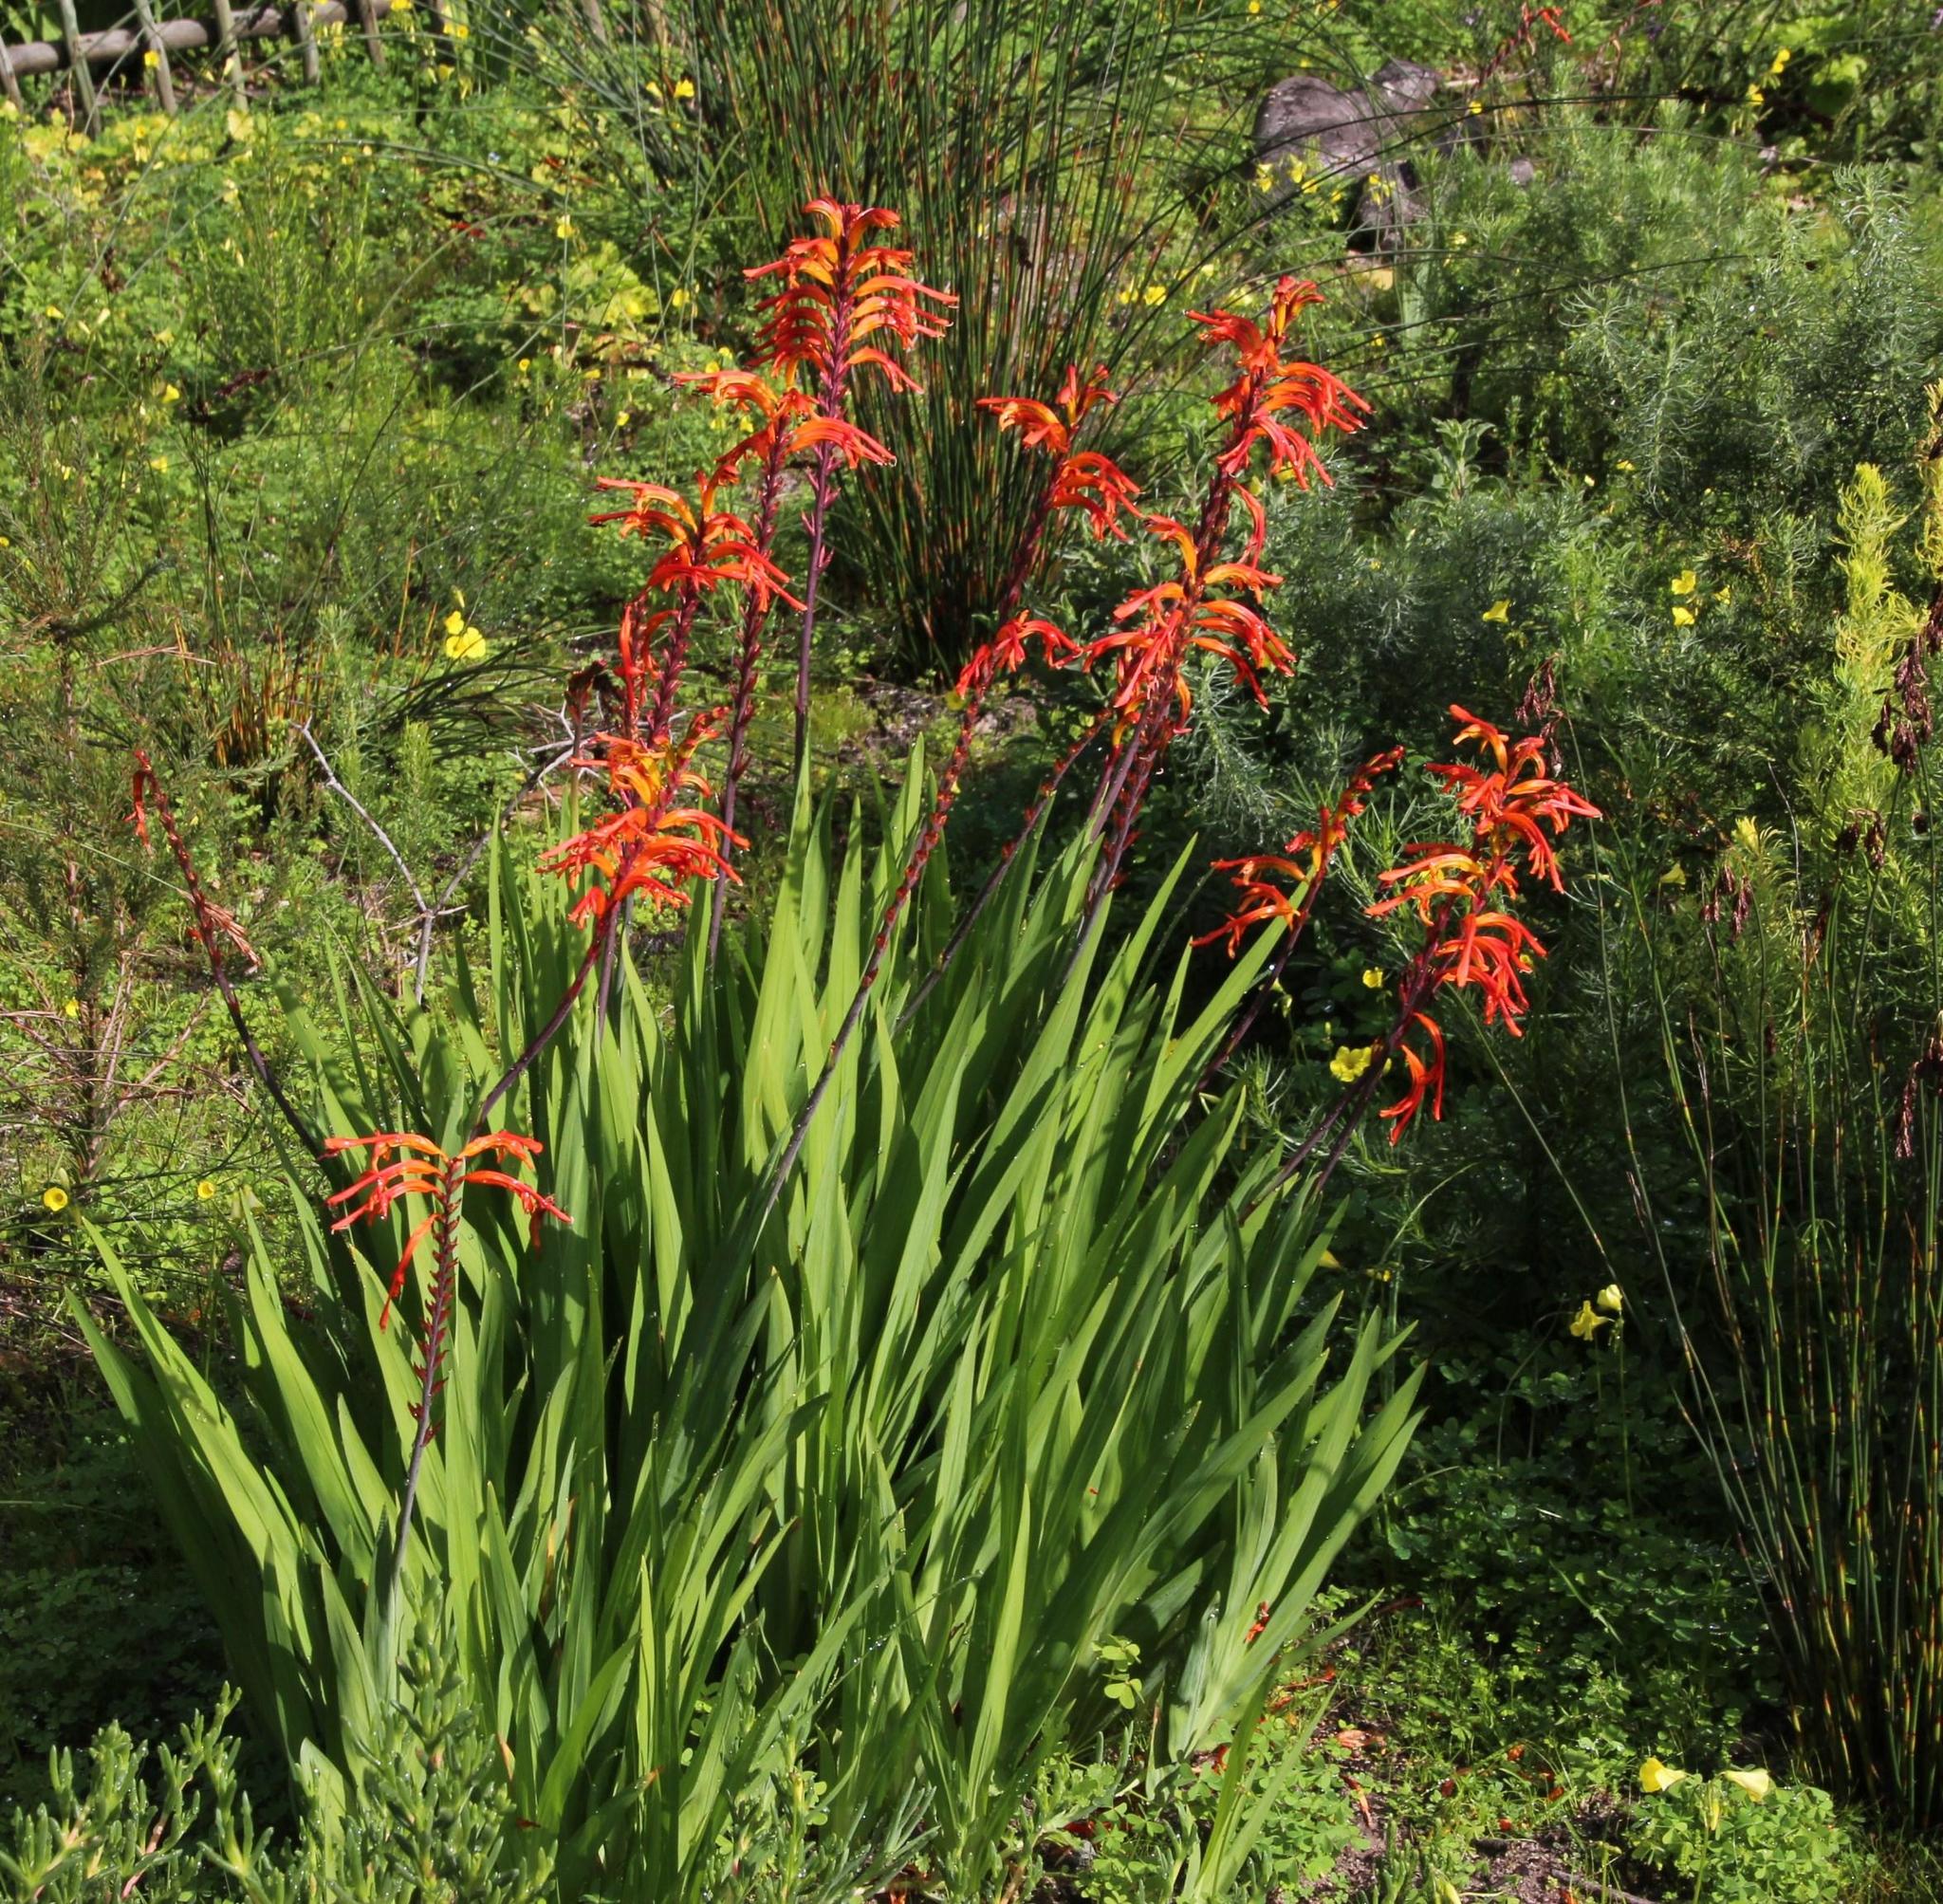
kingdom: Plantae
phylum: Tracheophyta
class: Liliopsida
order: Asparagales
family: Iridaceae
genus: Chasmanthe
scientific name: Chasmanthe floribunda
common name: African cornflag
